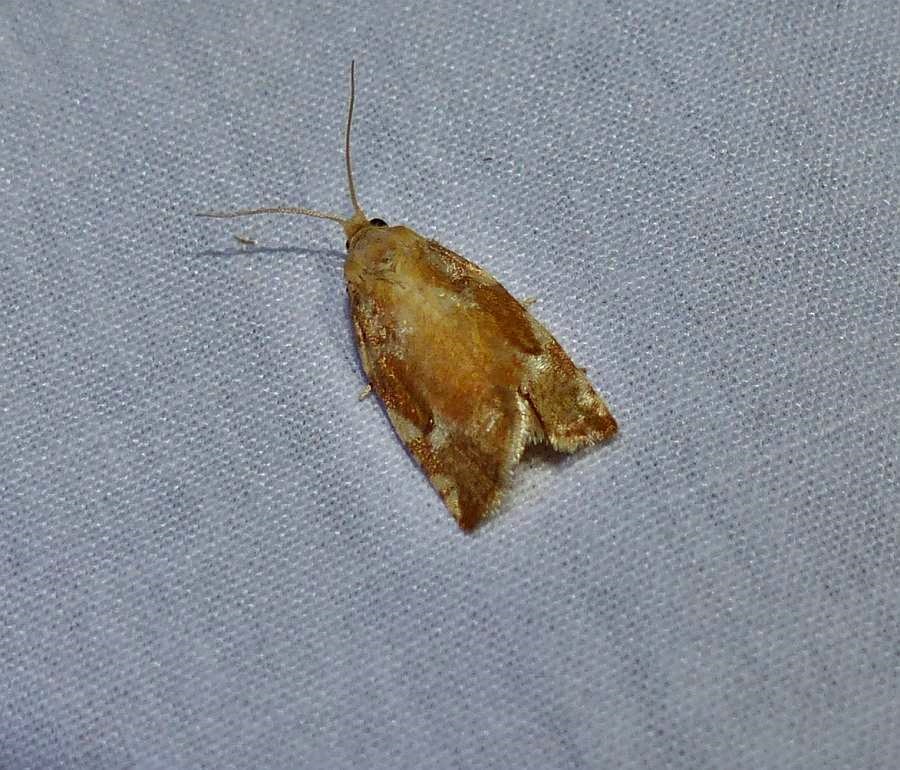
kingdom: Animalia
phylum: Arthropoda
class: Insecta
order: Lepidoptera
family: Tortricidae
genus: Archips
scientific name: Archips semiferanus
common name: Oak leafroller
